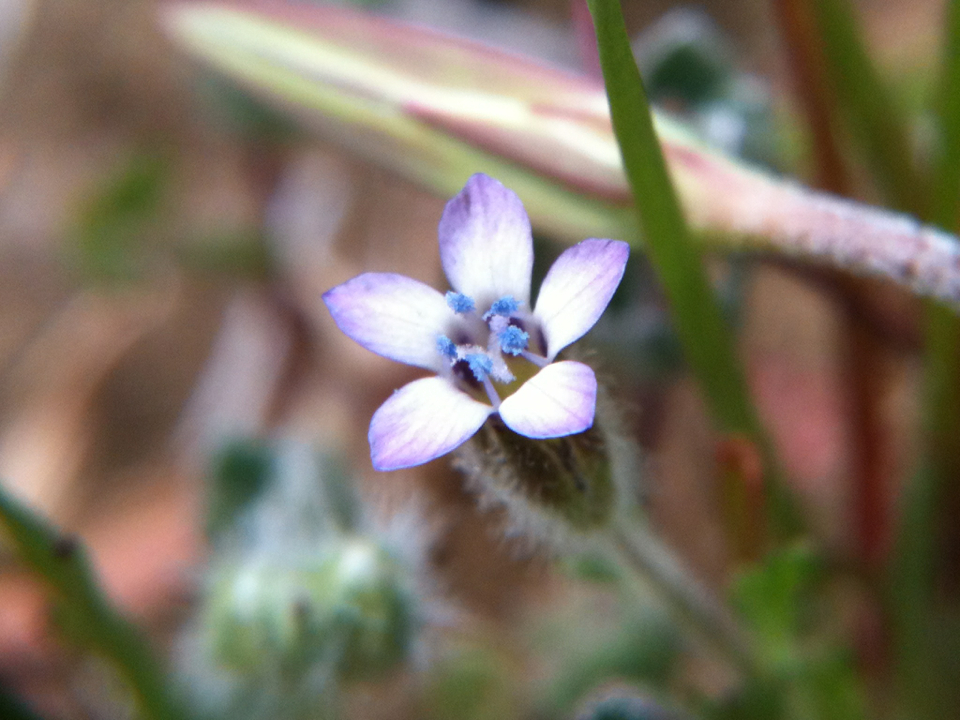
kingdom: Plantae
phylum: Tracheophyta
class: Magnoliopsida
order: Ericales
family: Polemoniaceae
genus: Gilia
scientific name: Gilia clivorum
